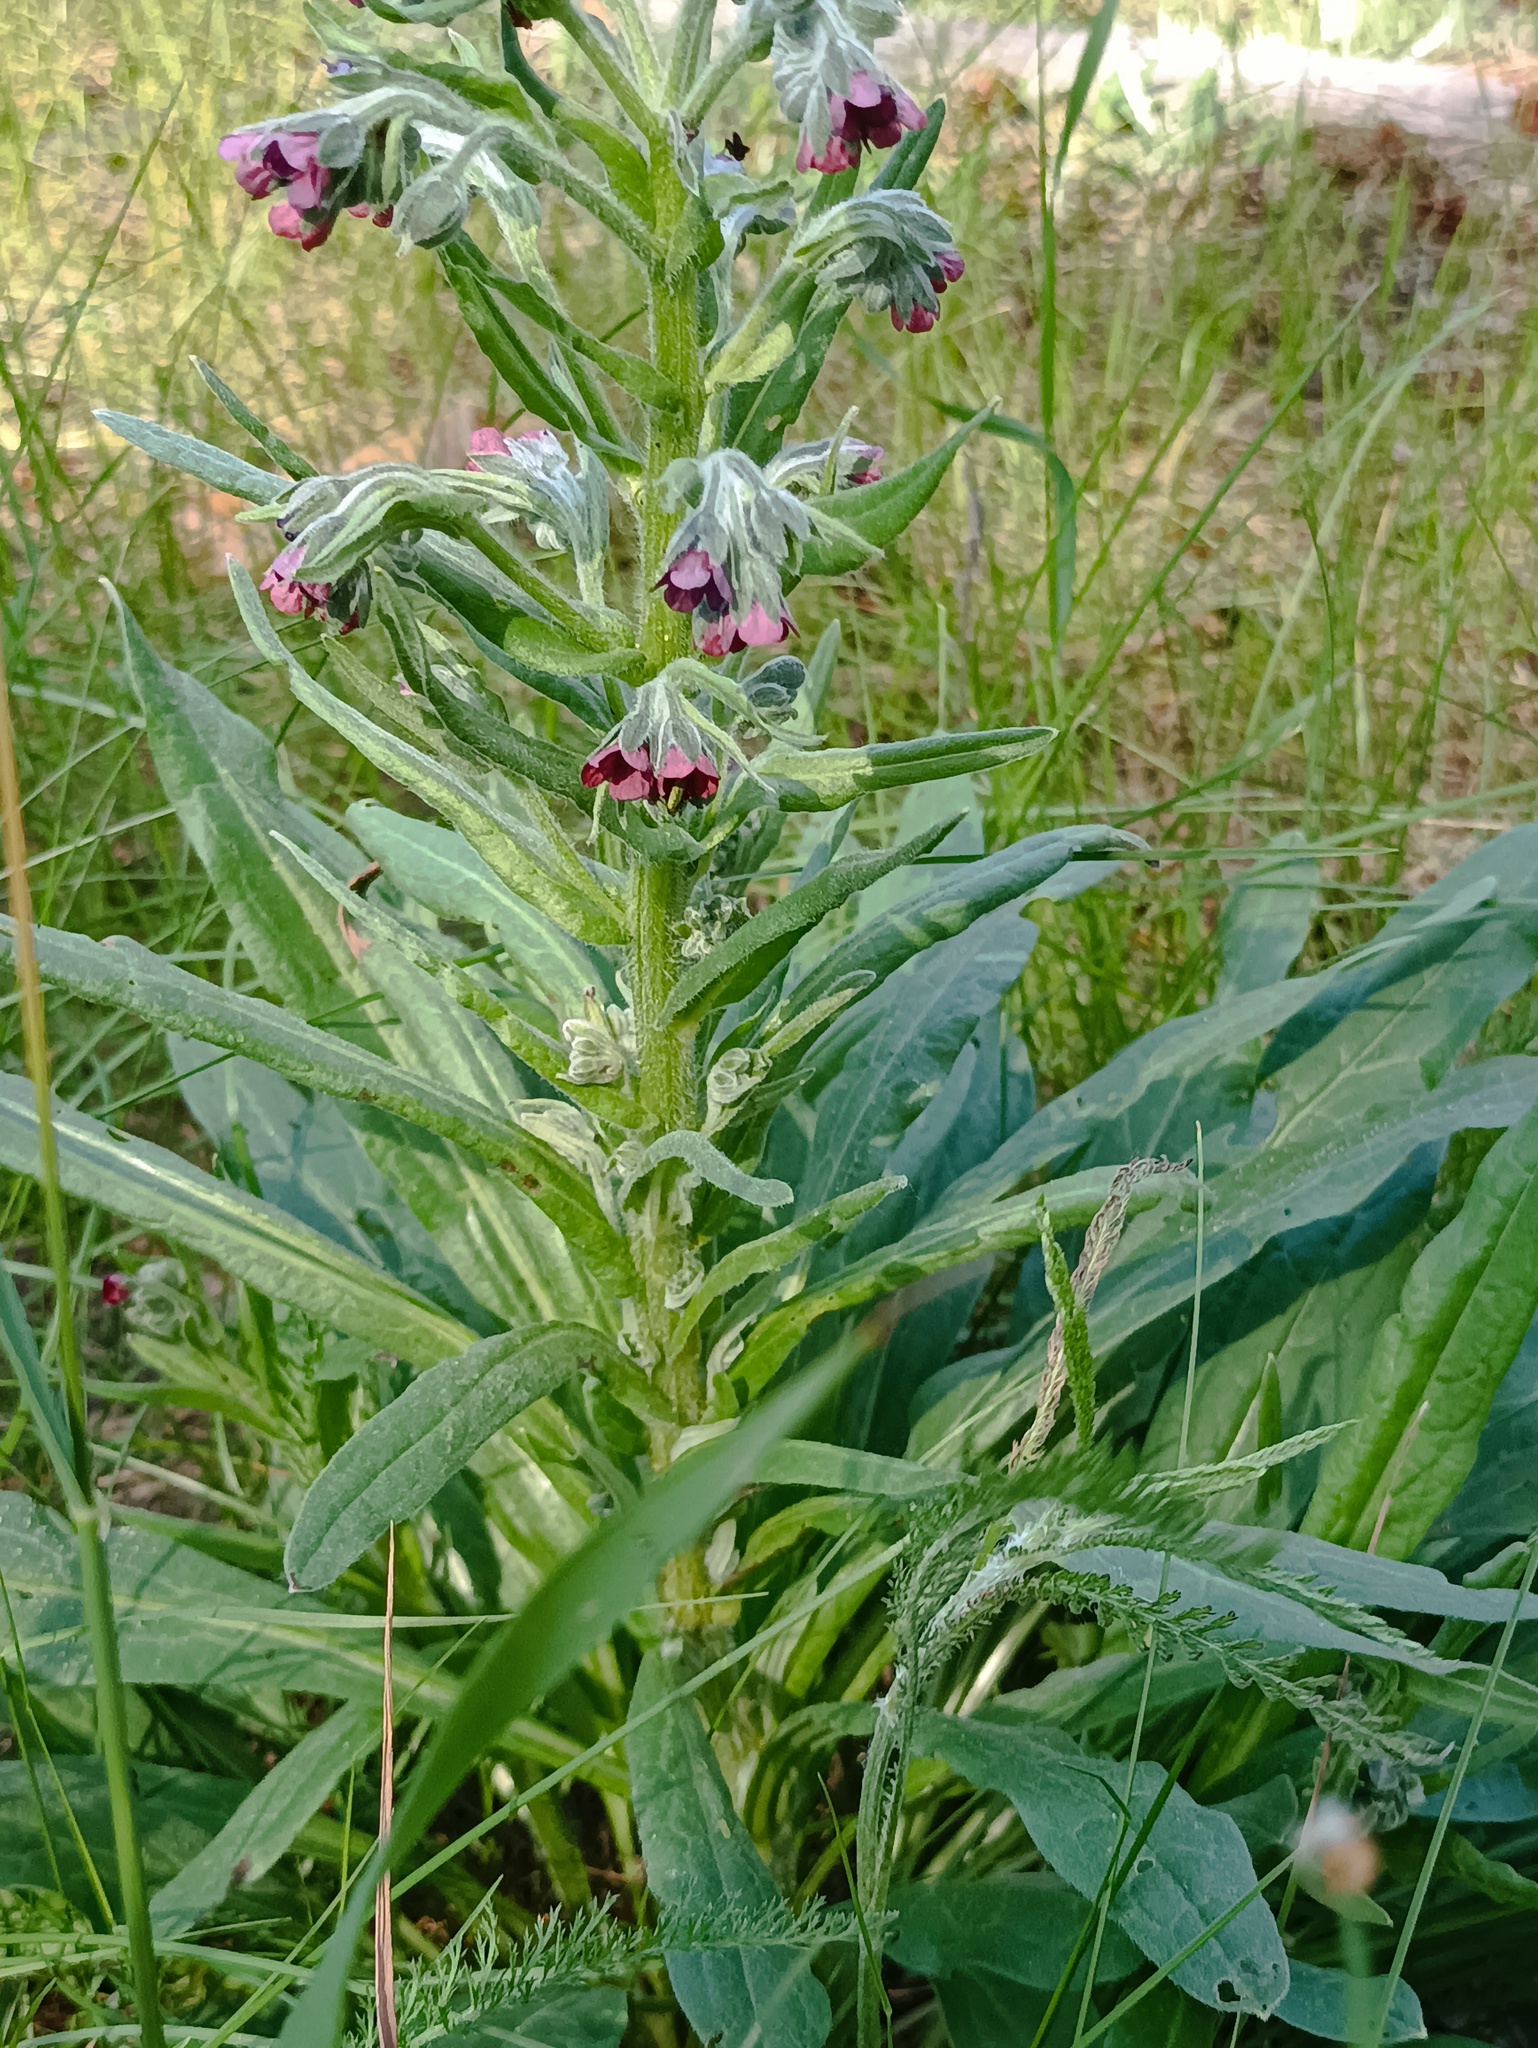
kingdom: Plantae
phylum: Tracheophyta
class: Magnoliopsida
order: Boraginales
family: Boraginaceae
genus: Cynoglossum
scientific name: Cynoglossum officinale
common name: Hound's-tongue
